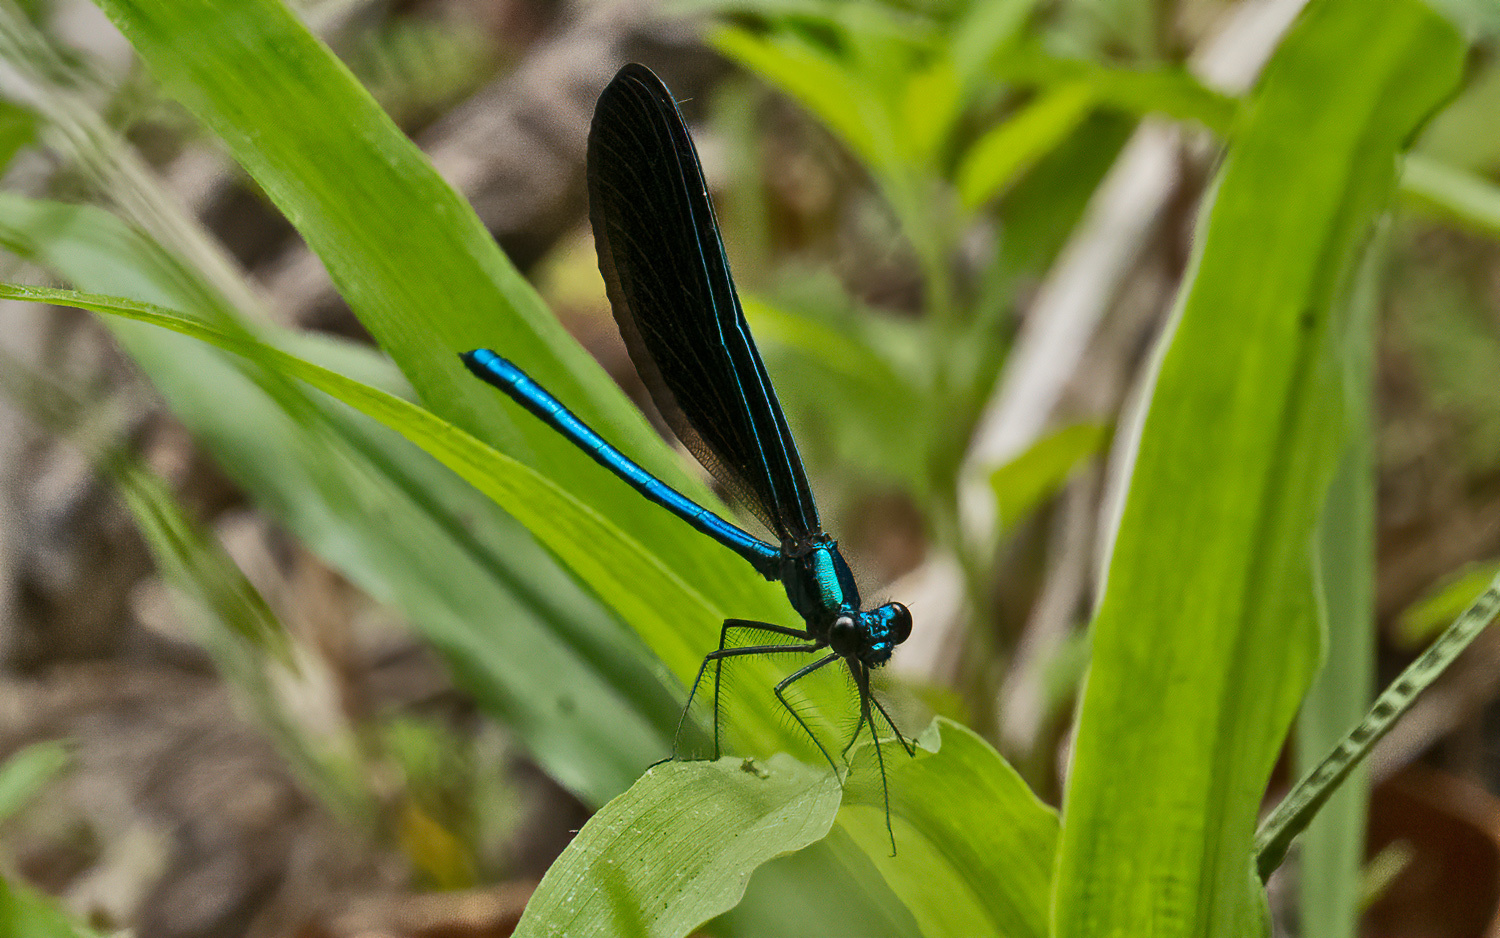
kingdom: Animalia
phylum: Arthropoda
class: Insecta
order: Odonata
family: Calopterygidae
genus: Calopteryx
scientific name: Calopteryx maculata
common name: Ebony jewelwing
